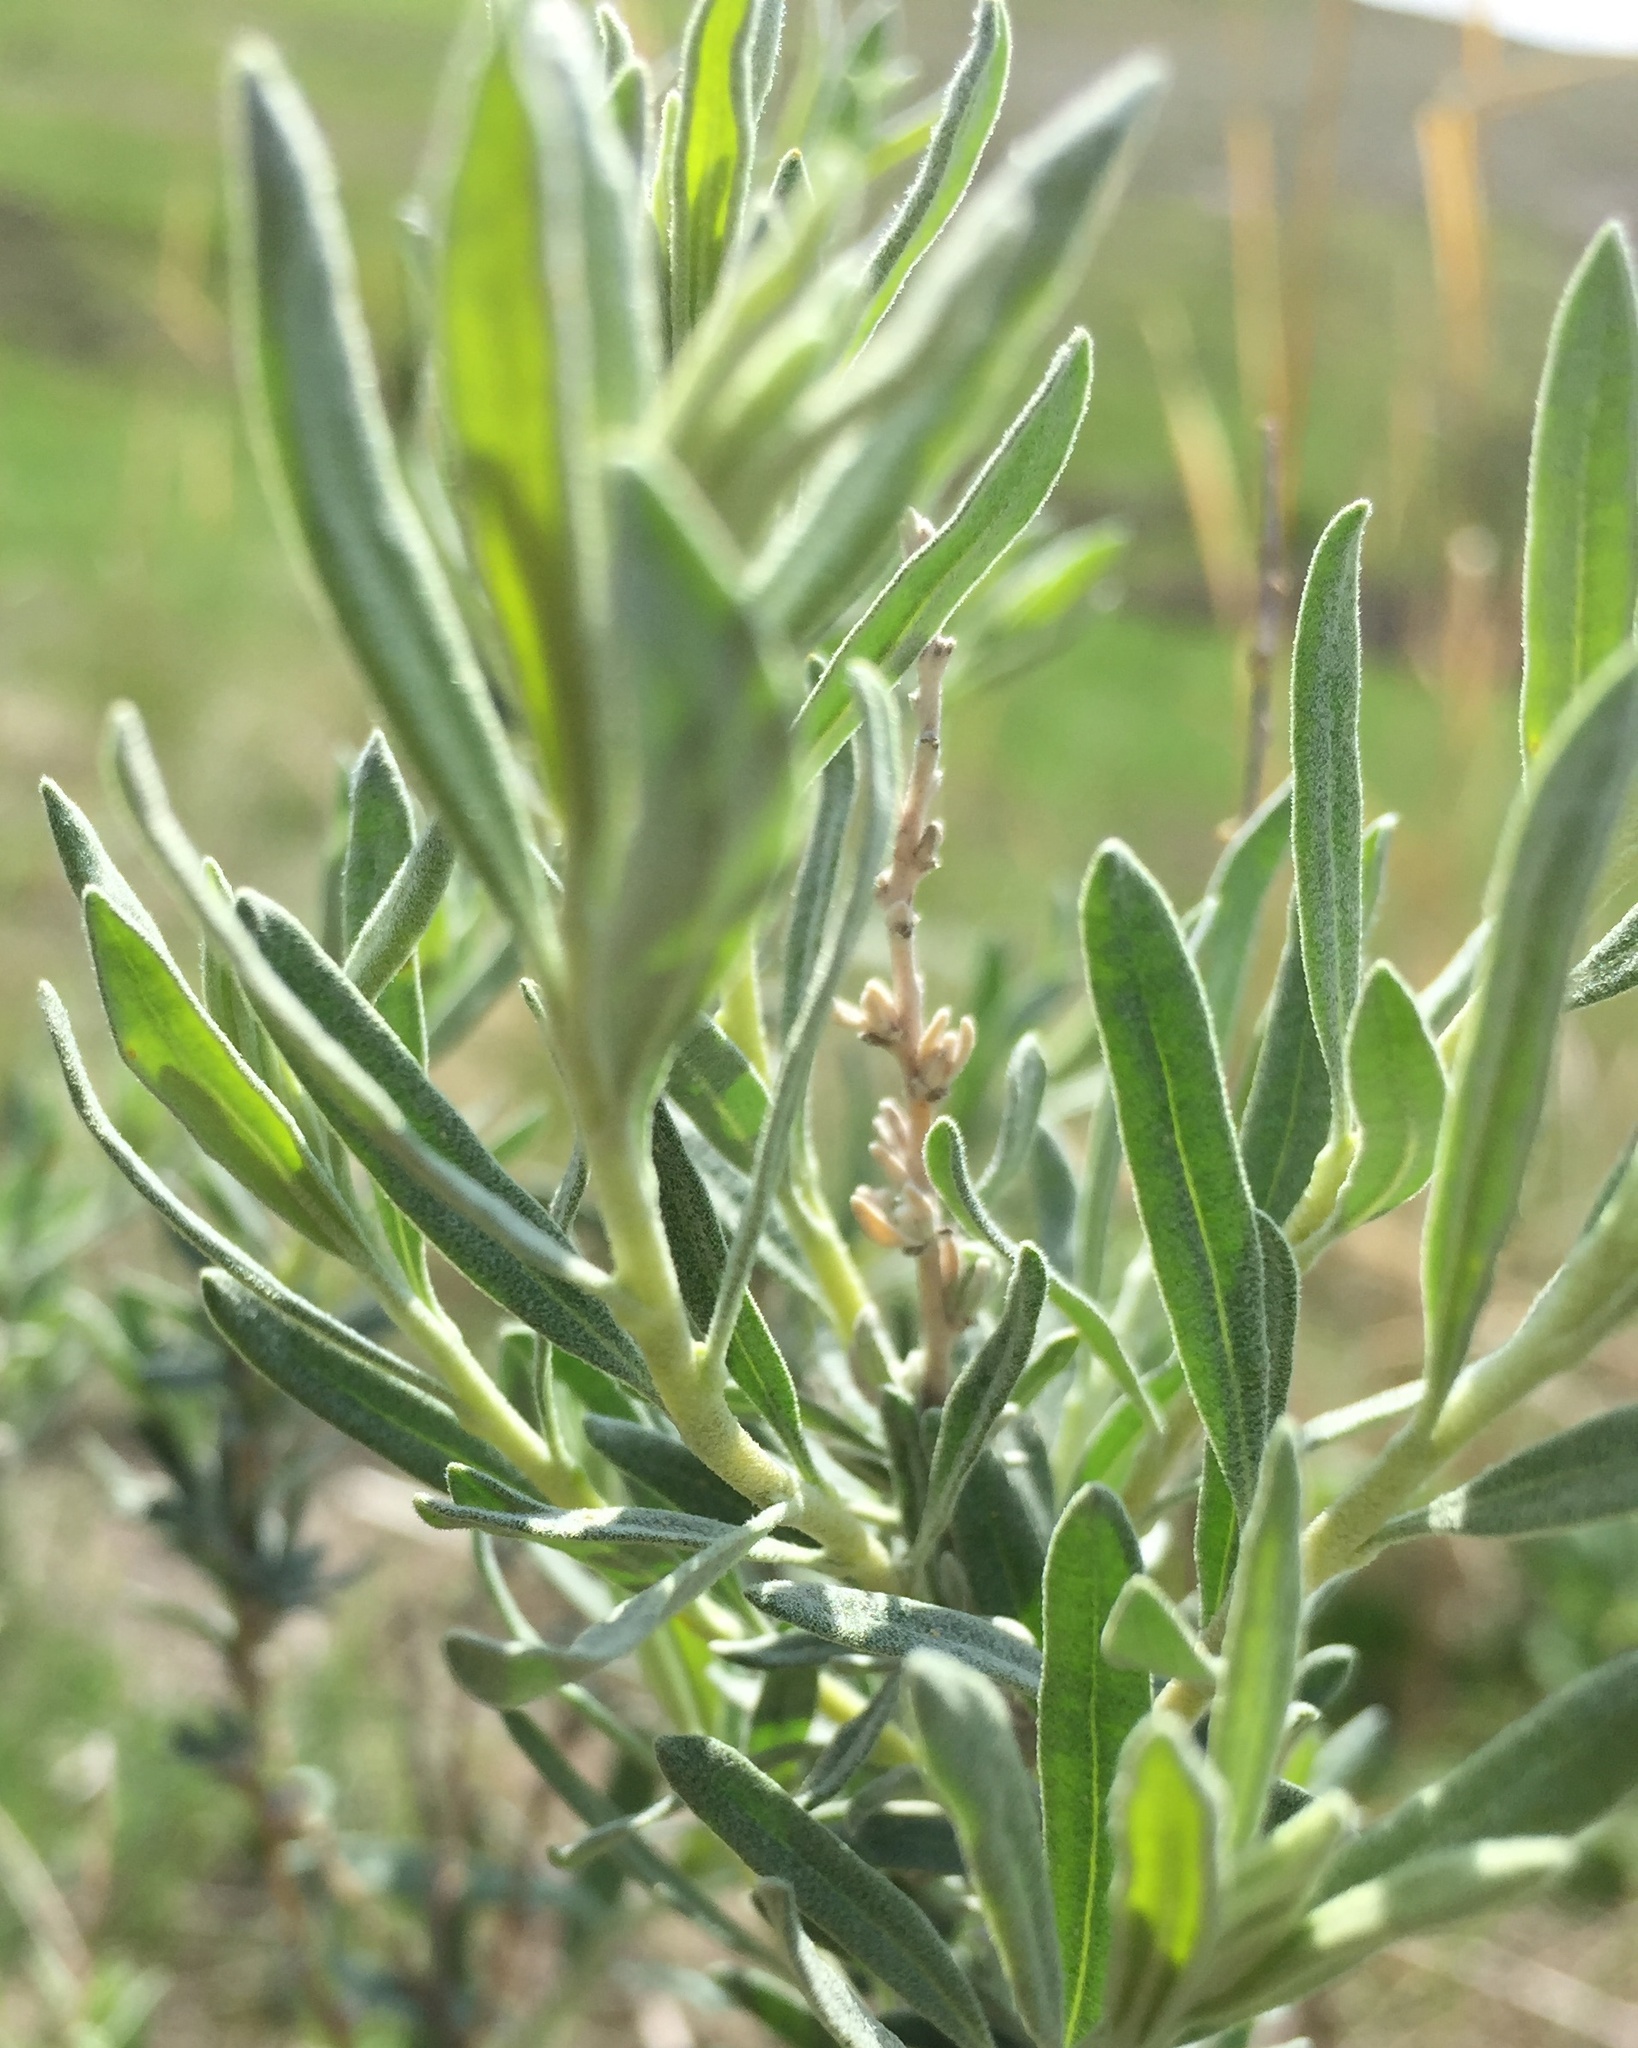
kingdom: Plantae
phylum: Tracheophyta
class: Magnoliopsida
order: Caryophyllales
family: Amaranthaceae
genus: Krascheninnikovia
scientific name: Krascheninnikovia ceratoides
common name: Pamirian winterfat
